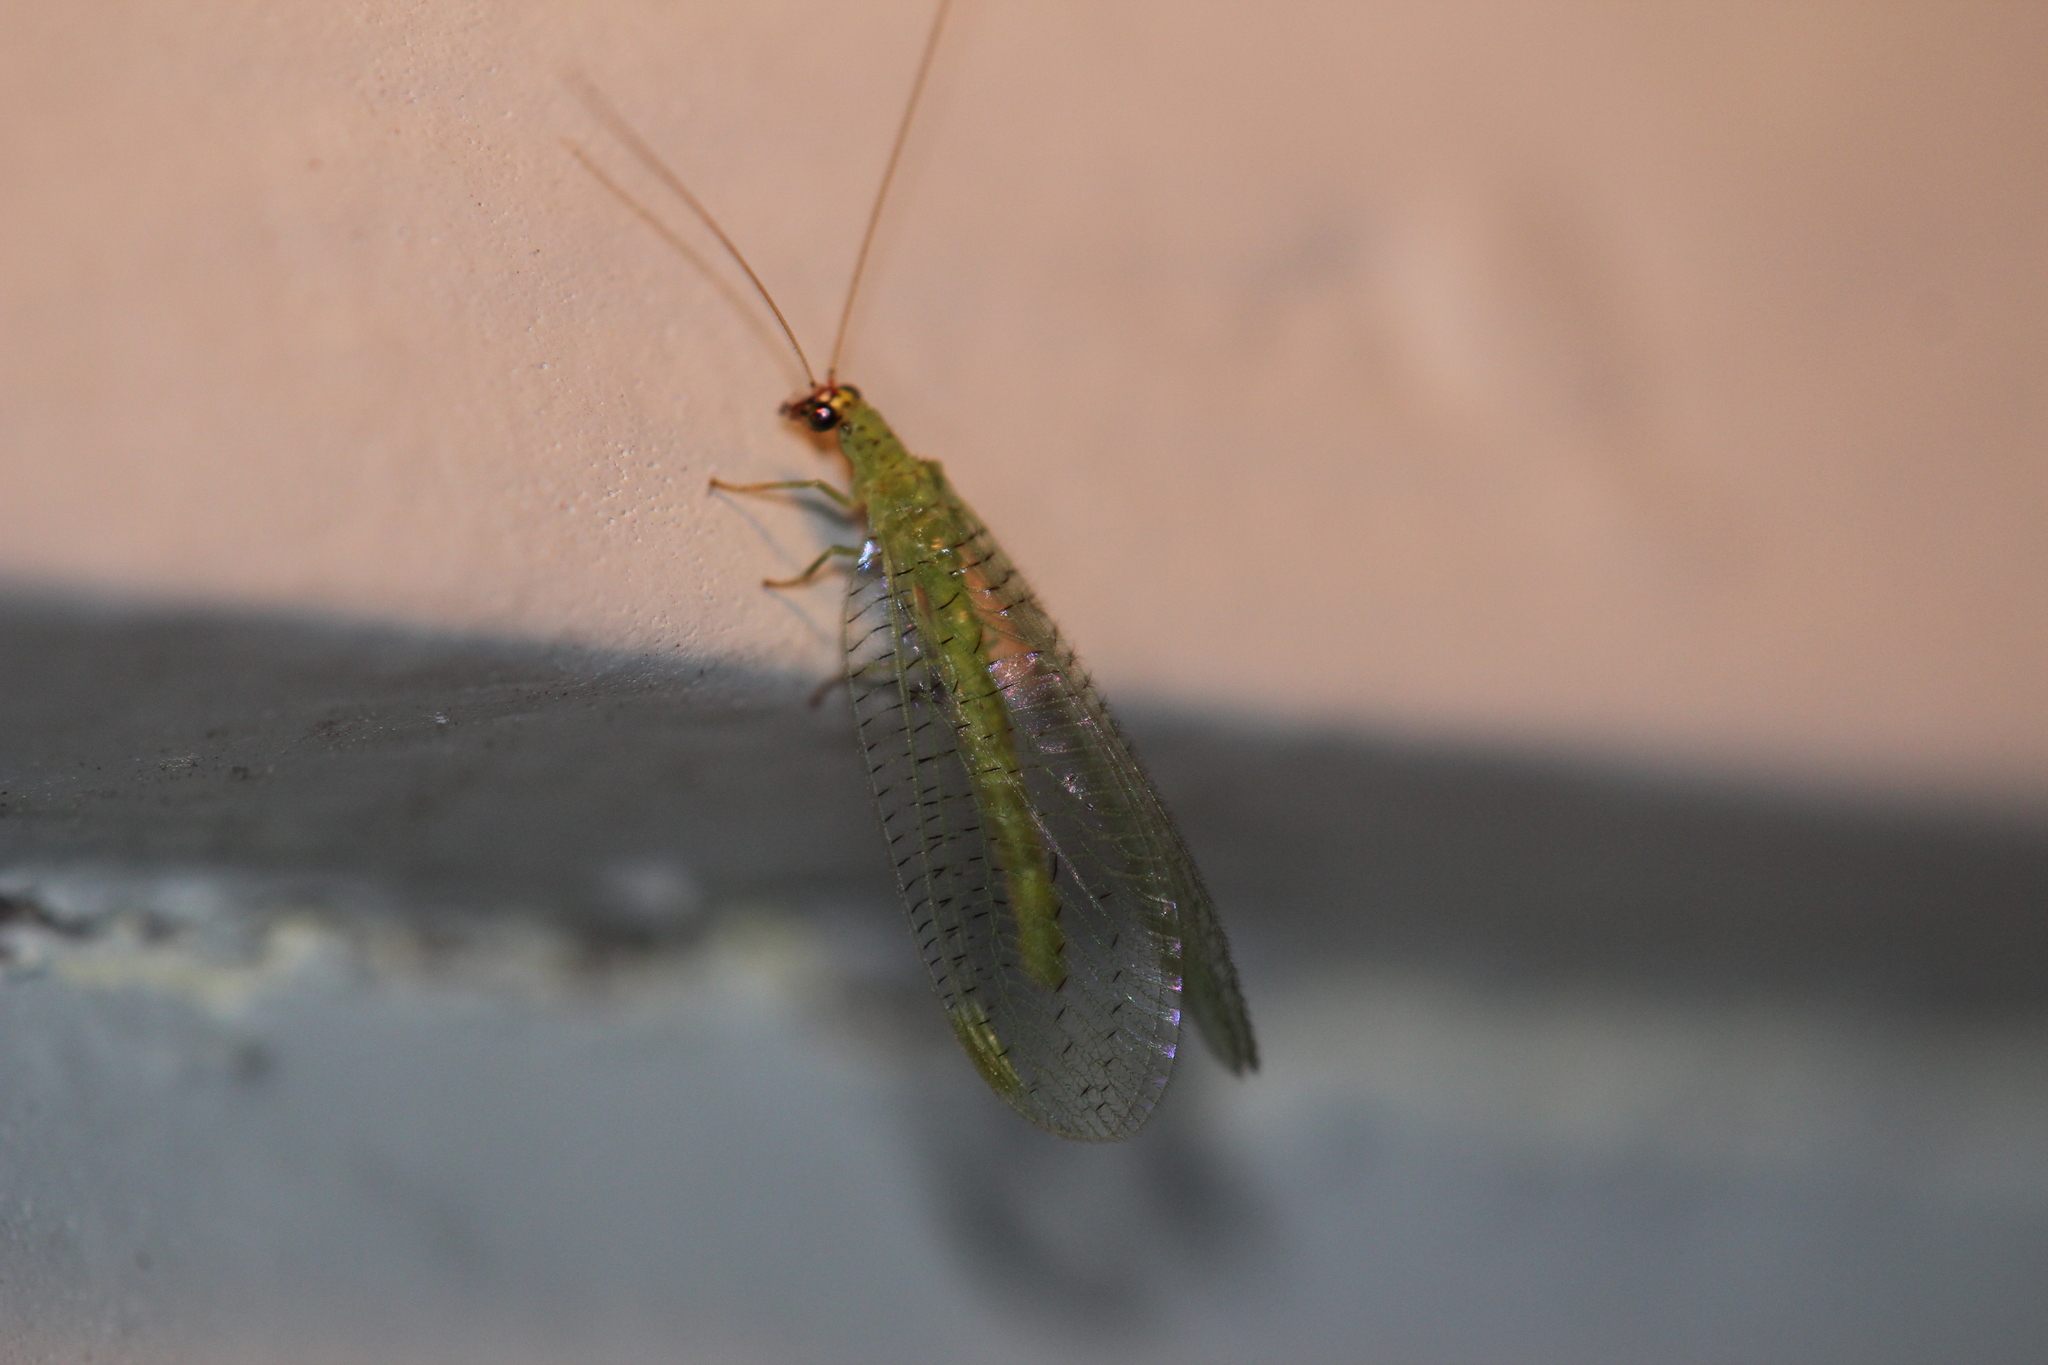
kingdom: Animalia
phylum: Arthropoda
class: Insecta
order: Neuroptera
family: Chrysopidae
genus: Chrysopa
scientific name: Chrysopa oculata
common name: Golden-eyed lacewing
